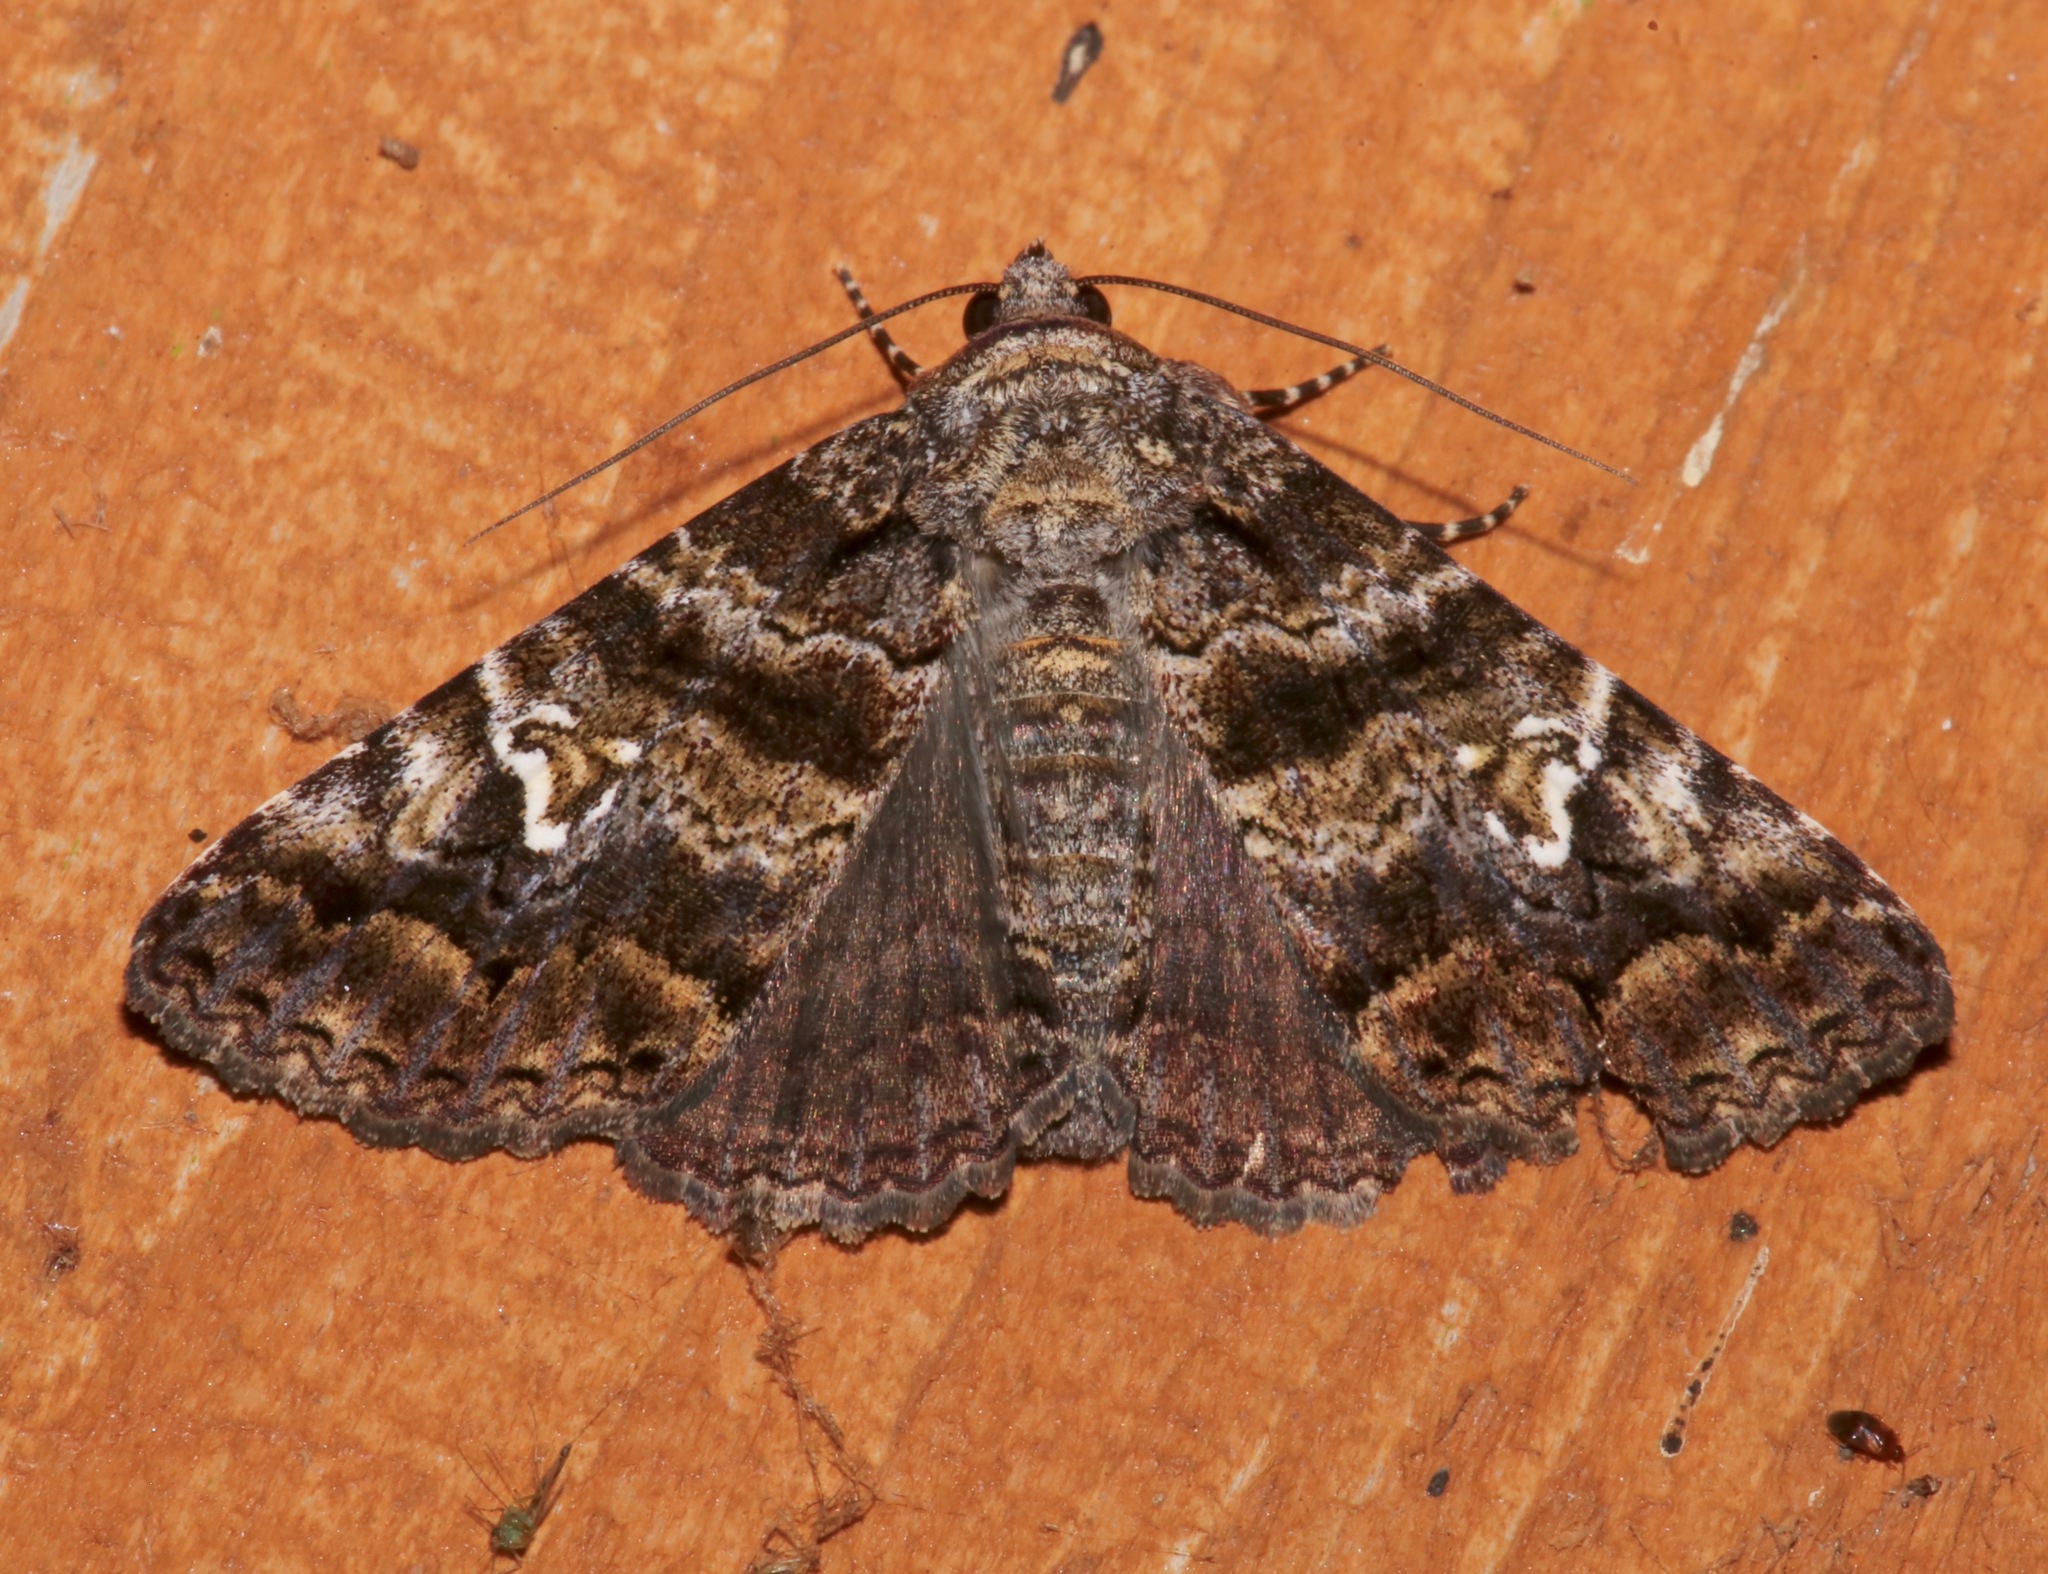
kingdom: Animalia
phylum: Arthropoda
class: Insecta
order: Lepidoptera
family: Erebidae
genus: Metria
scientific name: Metria amella
